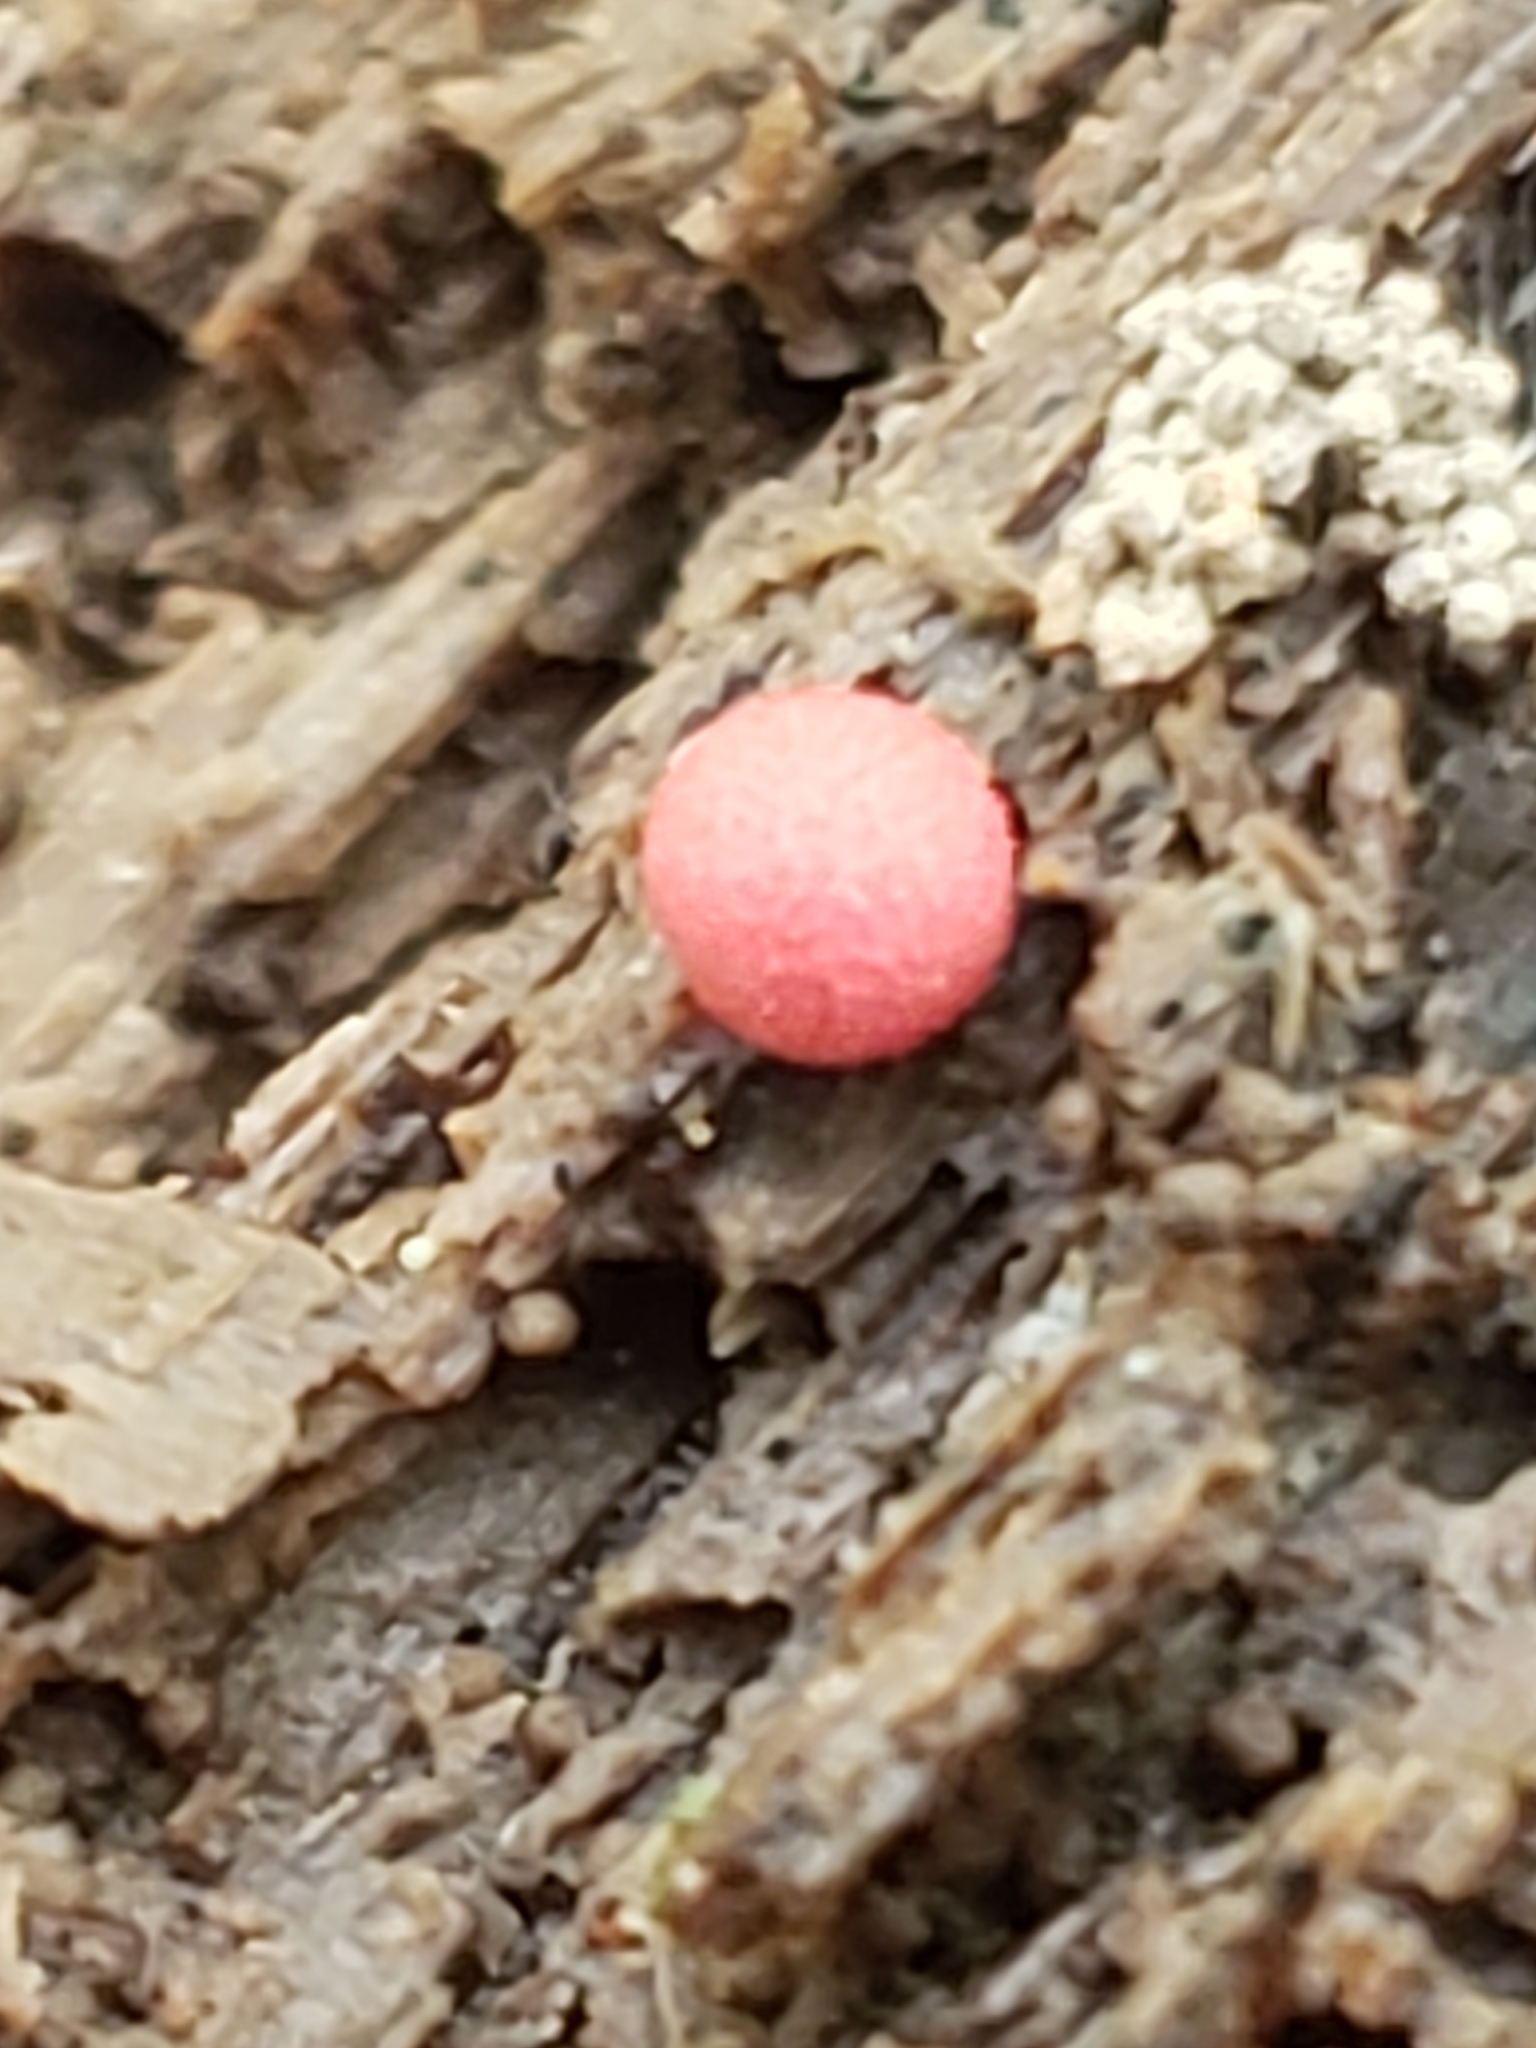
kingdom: Protozoa
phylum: Mycetozoa
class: Myxomycetes
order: Cribrariales
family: Tubiferaceae
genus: Lycogala
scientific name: Lycogala epidendrum
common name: Wolf's milk
